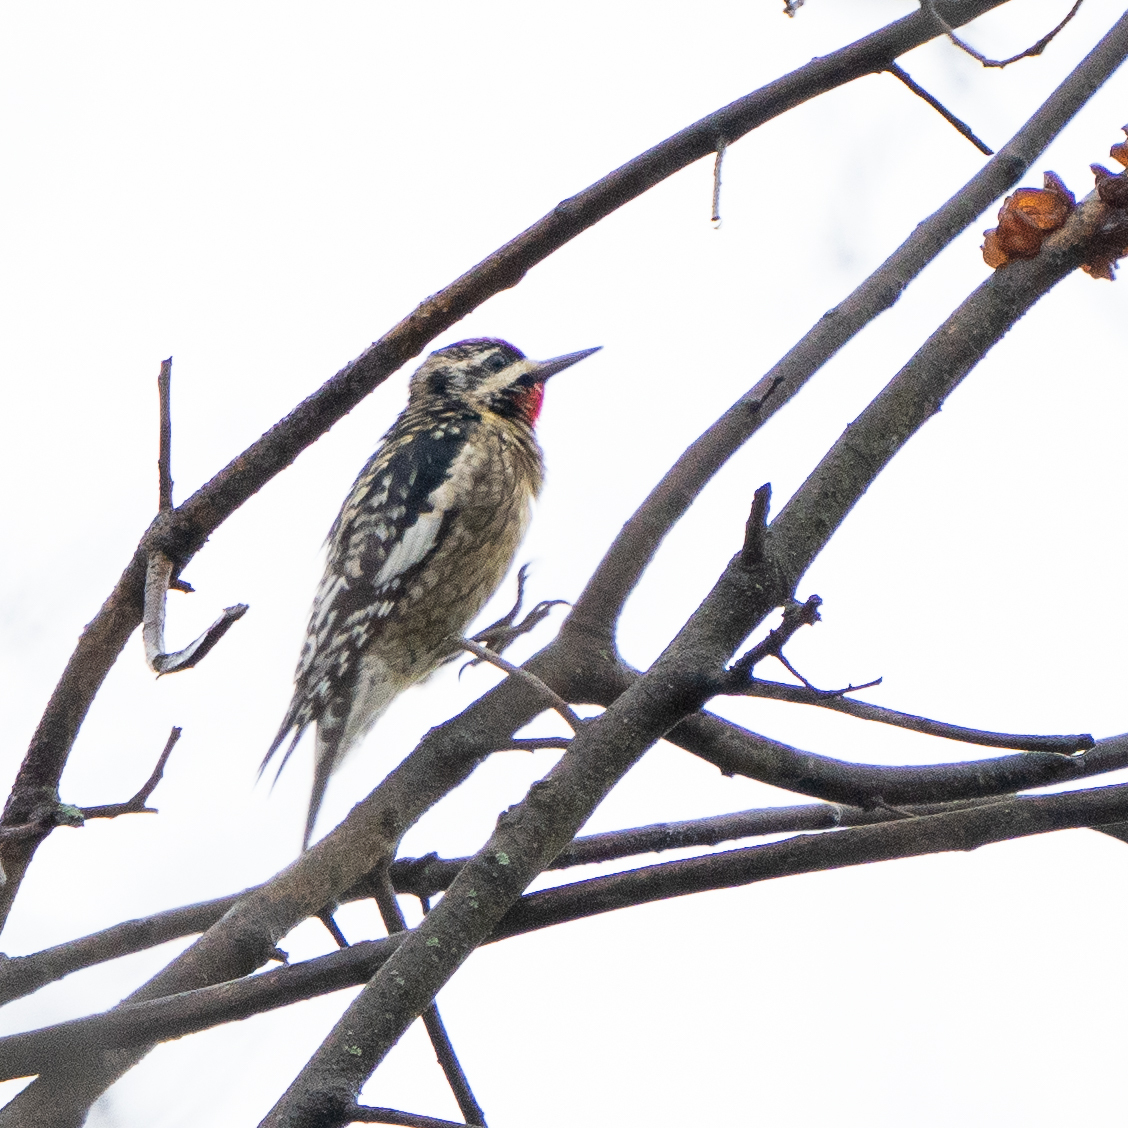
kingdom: Animalia
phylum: Chordata
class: Aves
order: Piciformes
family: Picidae
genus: Sphyrapicus
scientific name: Sphyrapicus varius
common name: Yellow-bellied sapsucker
